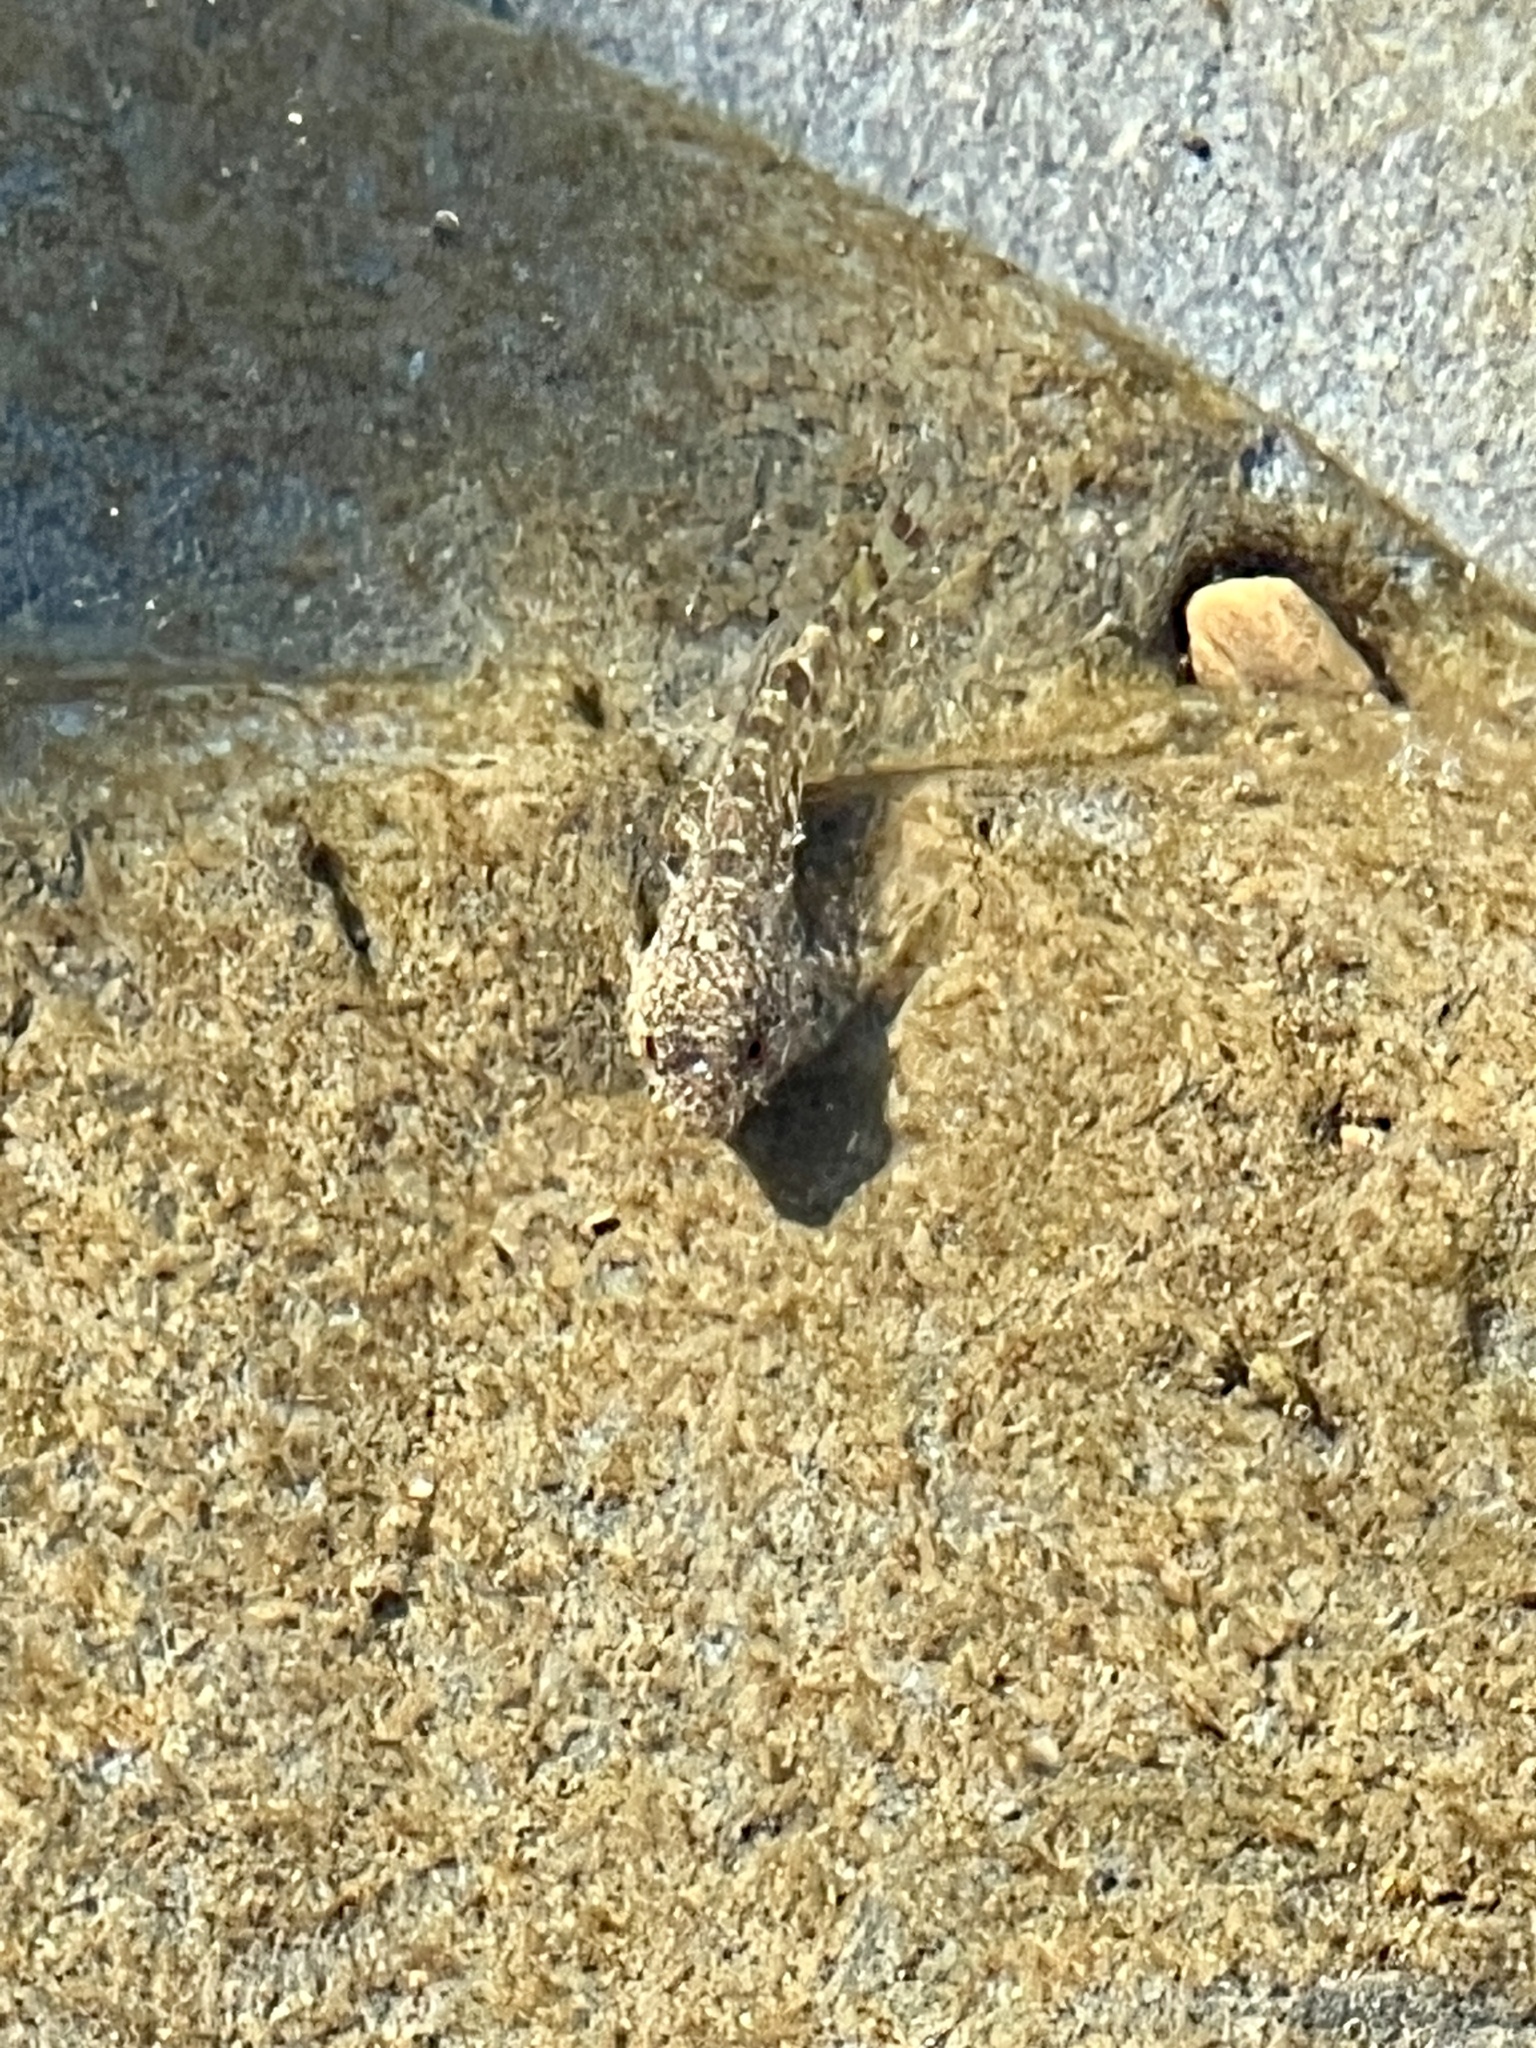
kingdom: Animalia
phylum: Chordata
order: Scorpaeniformes
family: Cottidae
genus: Clinocottus
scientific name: Clinocottus analis
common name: Woolly sculpin
